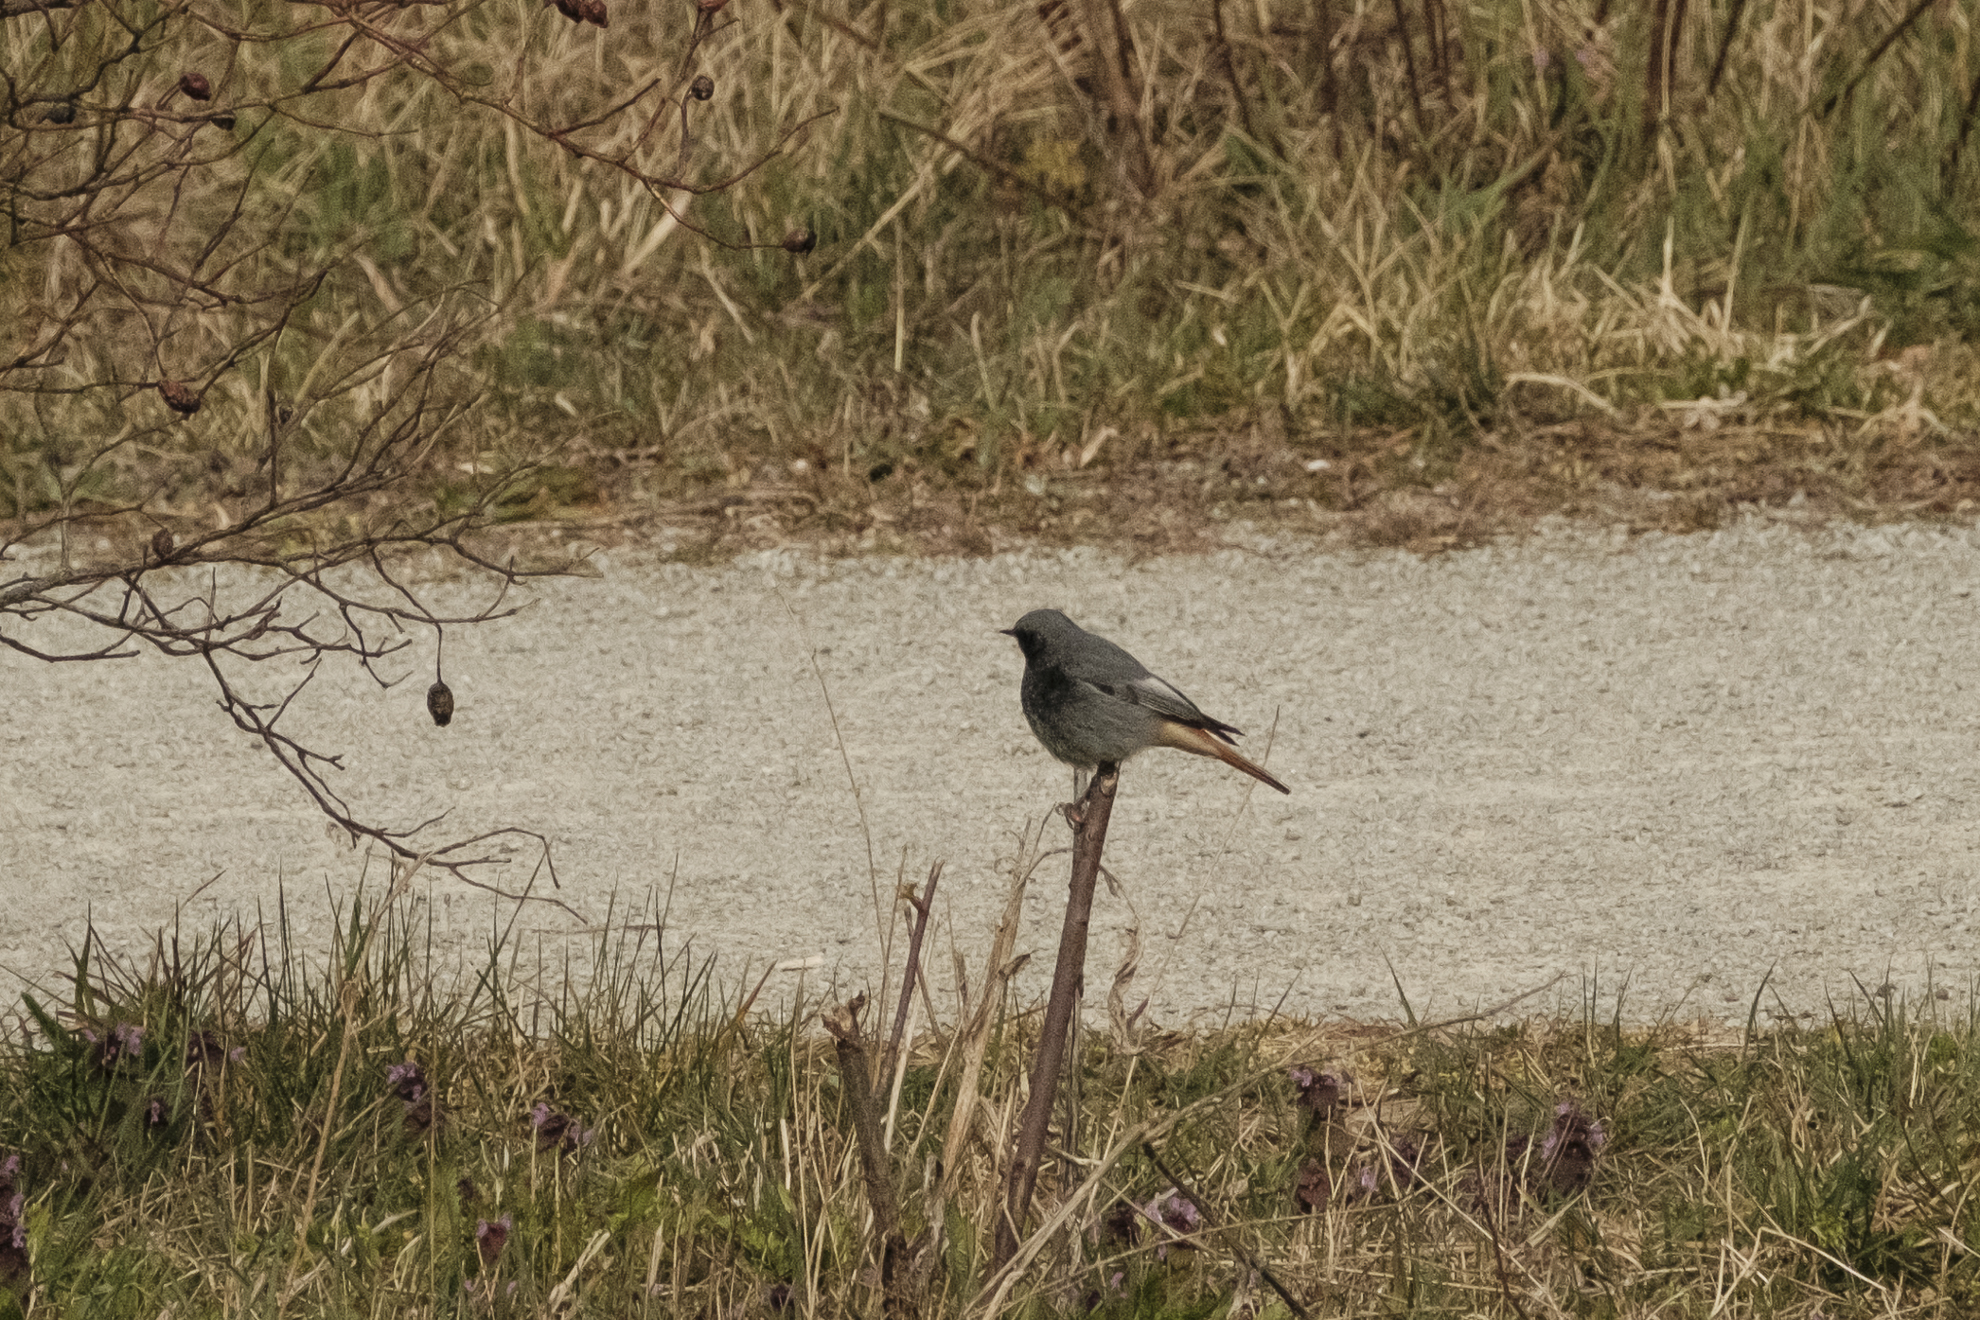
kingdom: Animalia
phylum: Chordata
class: Aves
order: Passeriformes
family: Muscicapidae
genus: Phoenicurus
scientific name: Phoenicurus ochruros
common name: Black redstart
